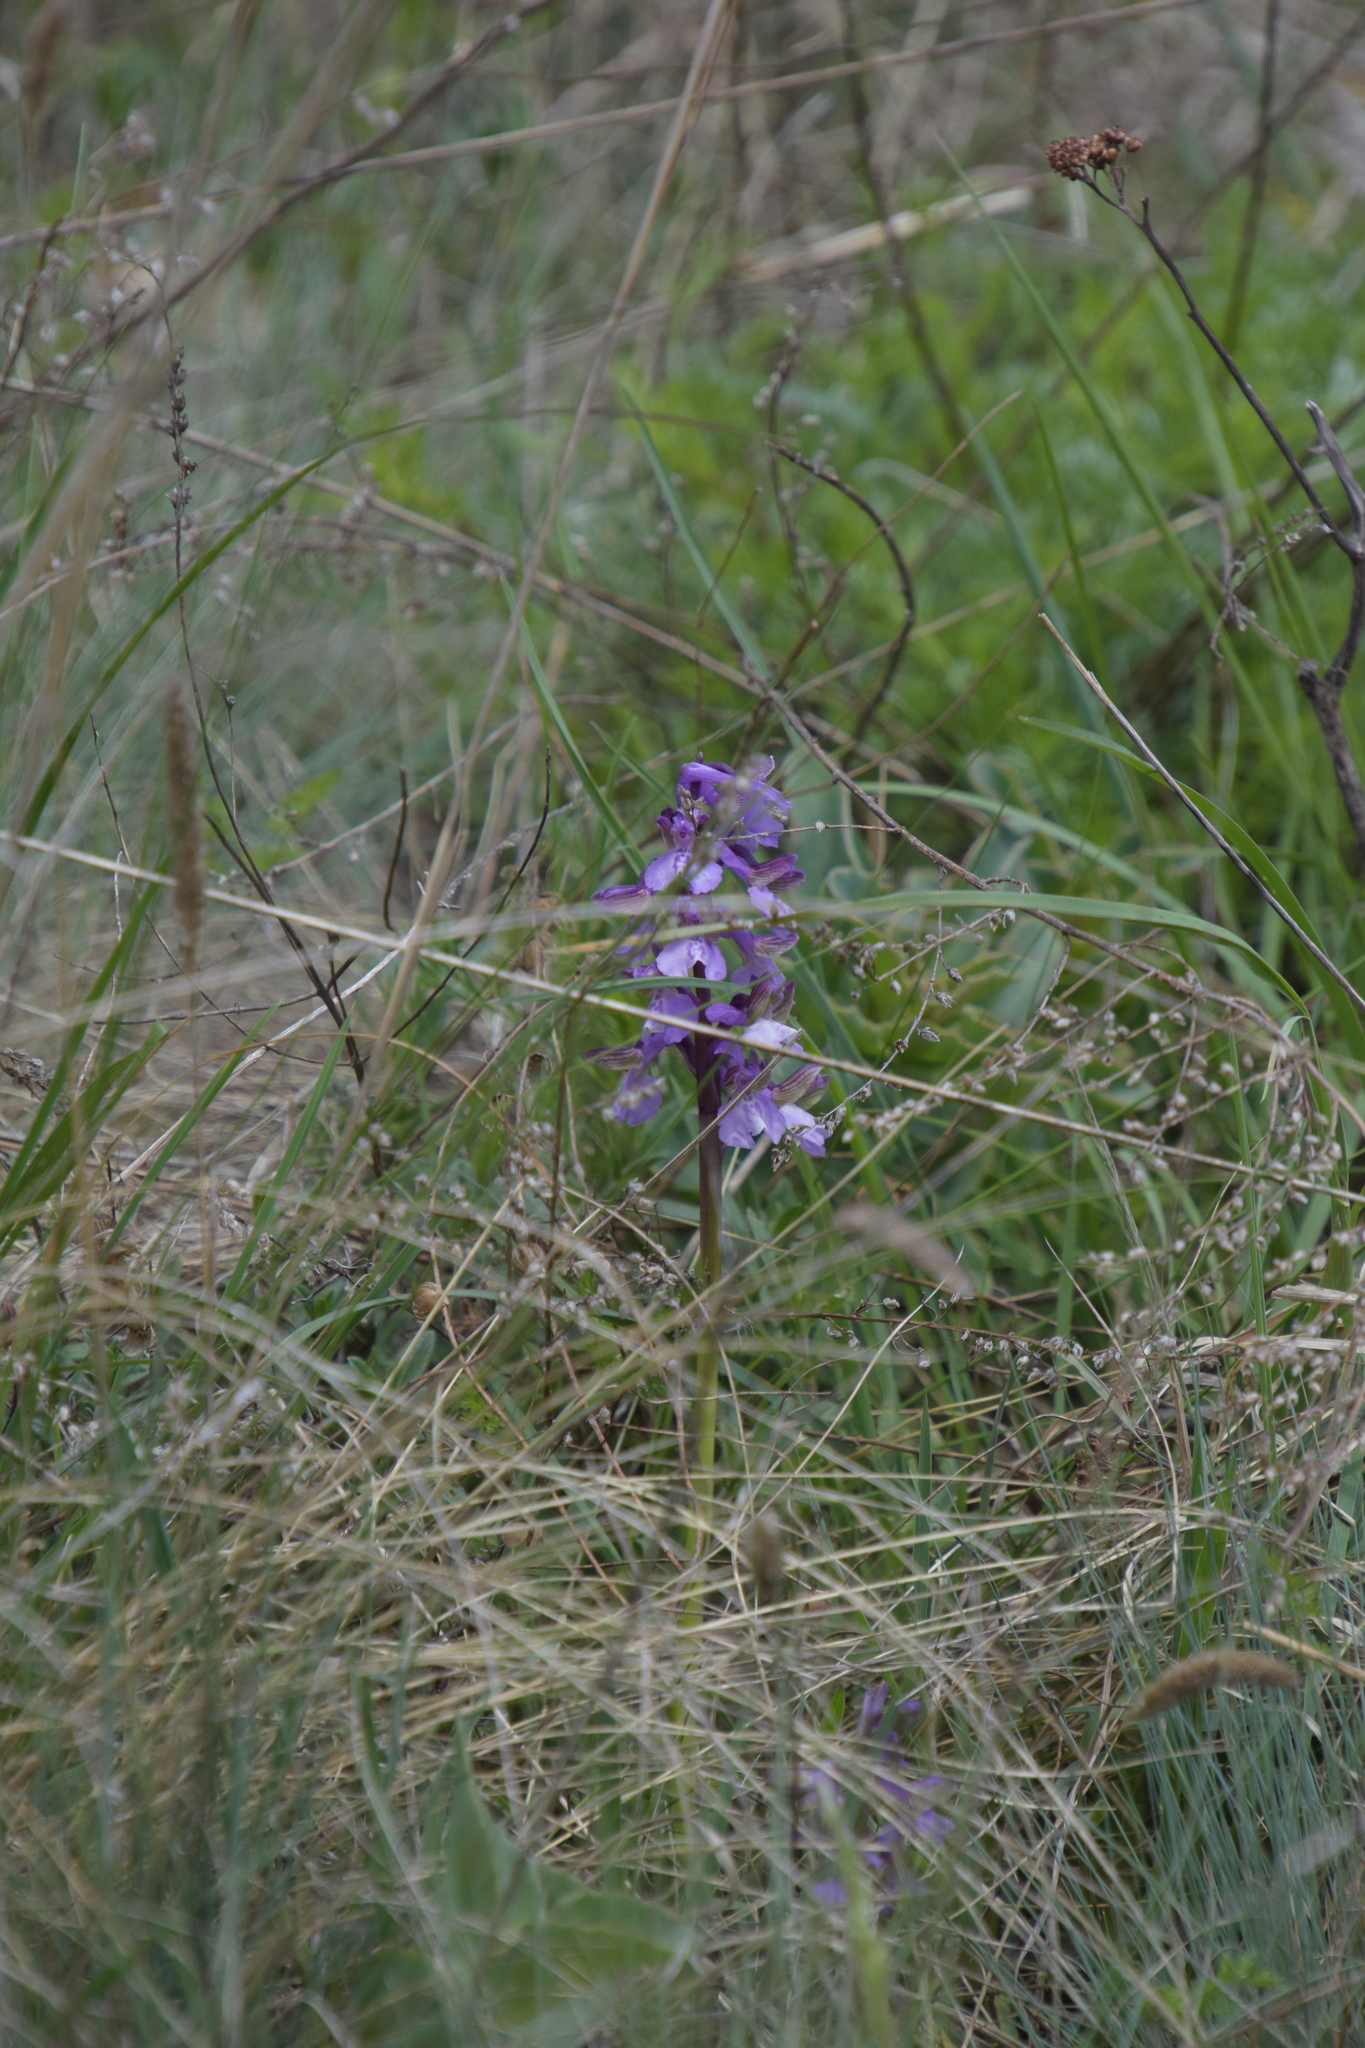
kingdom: Plantae
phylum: Tracheophyta
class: Liliopsida
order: Asparagales
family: Orchidaceae
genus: Anacamptis
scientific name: Anacamptis morio
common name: Green-winged orchid
